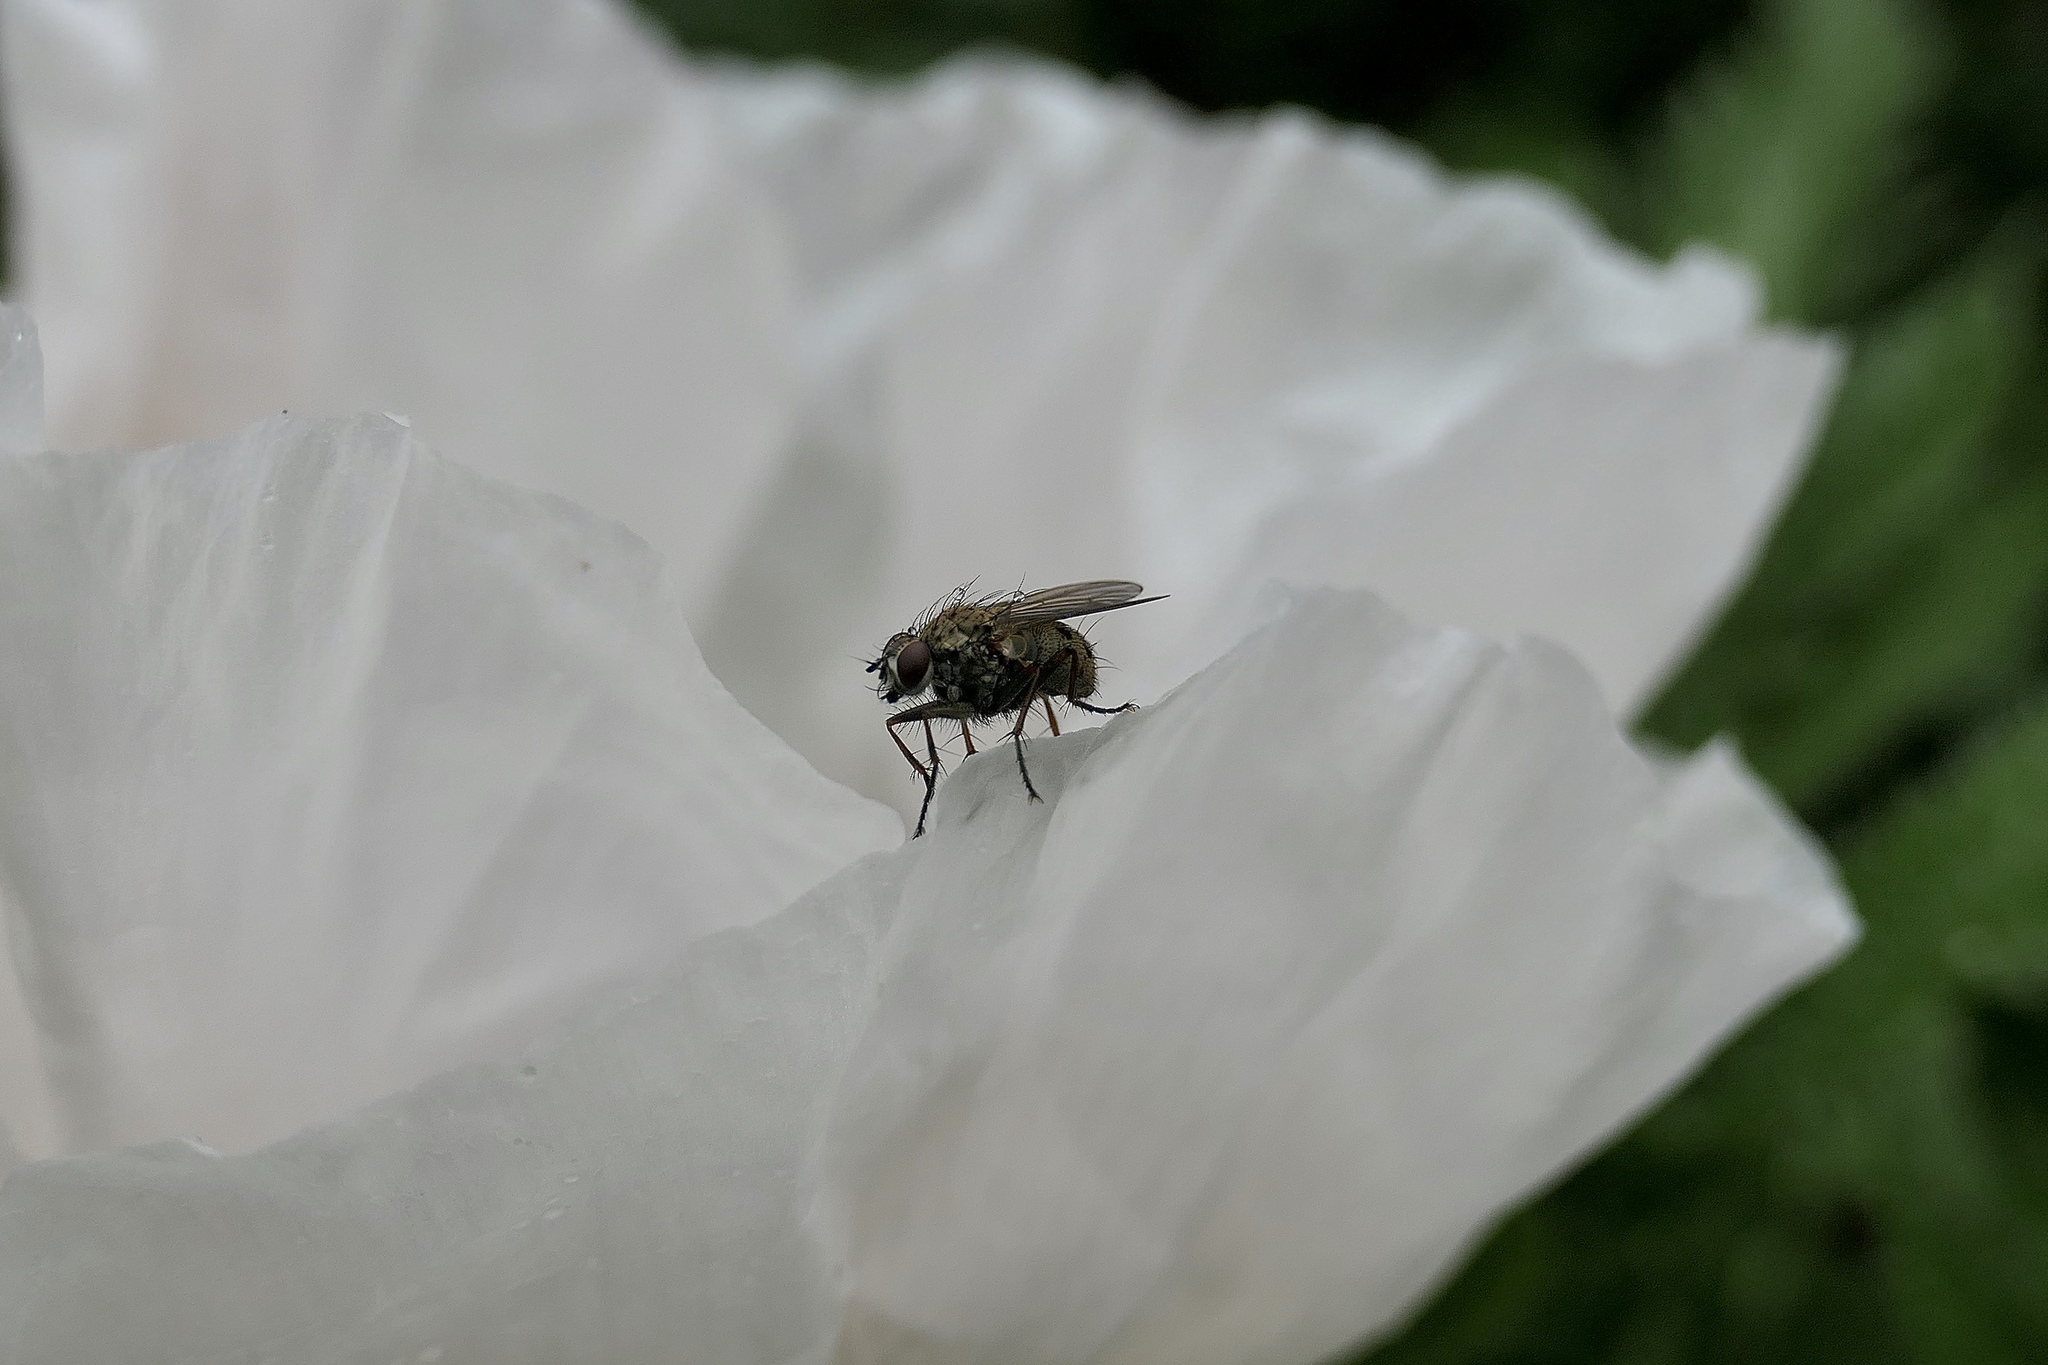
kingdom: Animalia
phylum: Arthropoda
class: Insecta
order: Diptera
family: Muscidae
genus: Coenosia
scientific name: Coenosia tigrina
